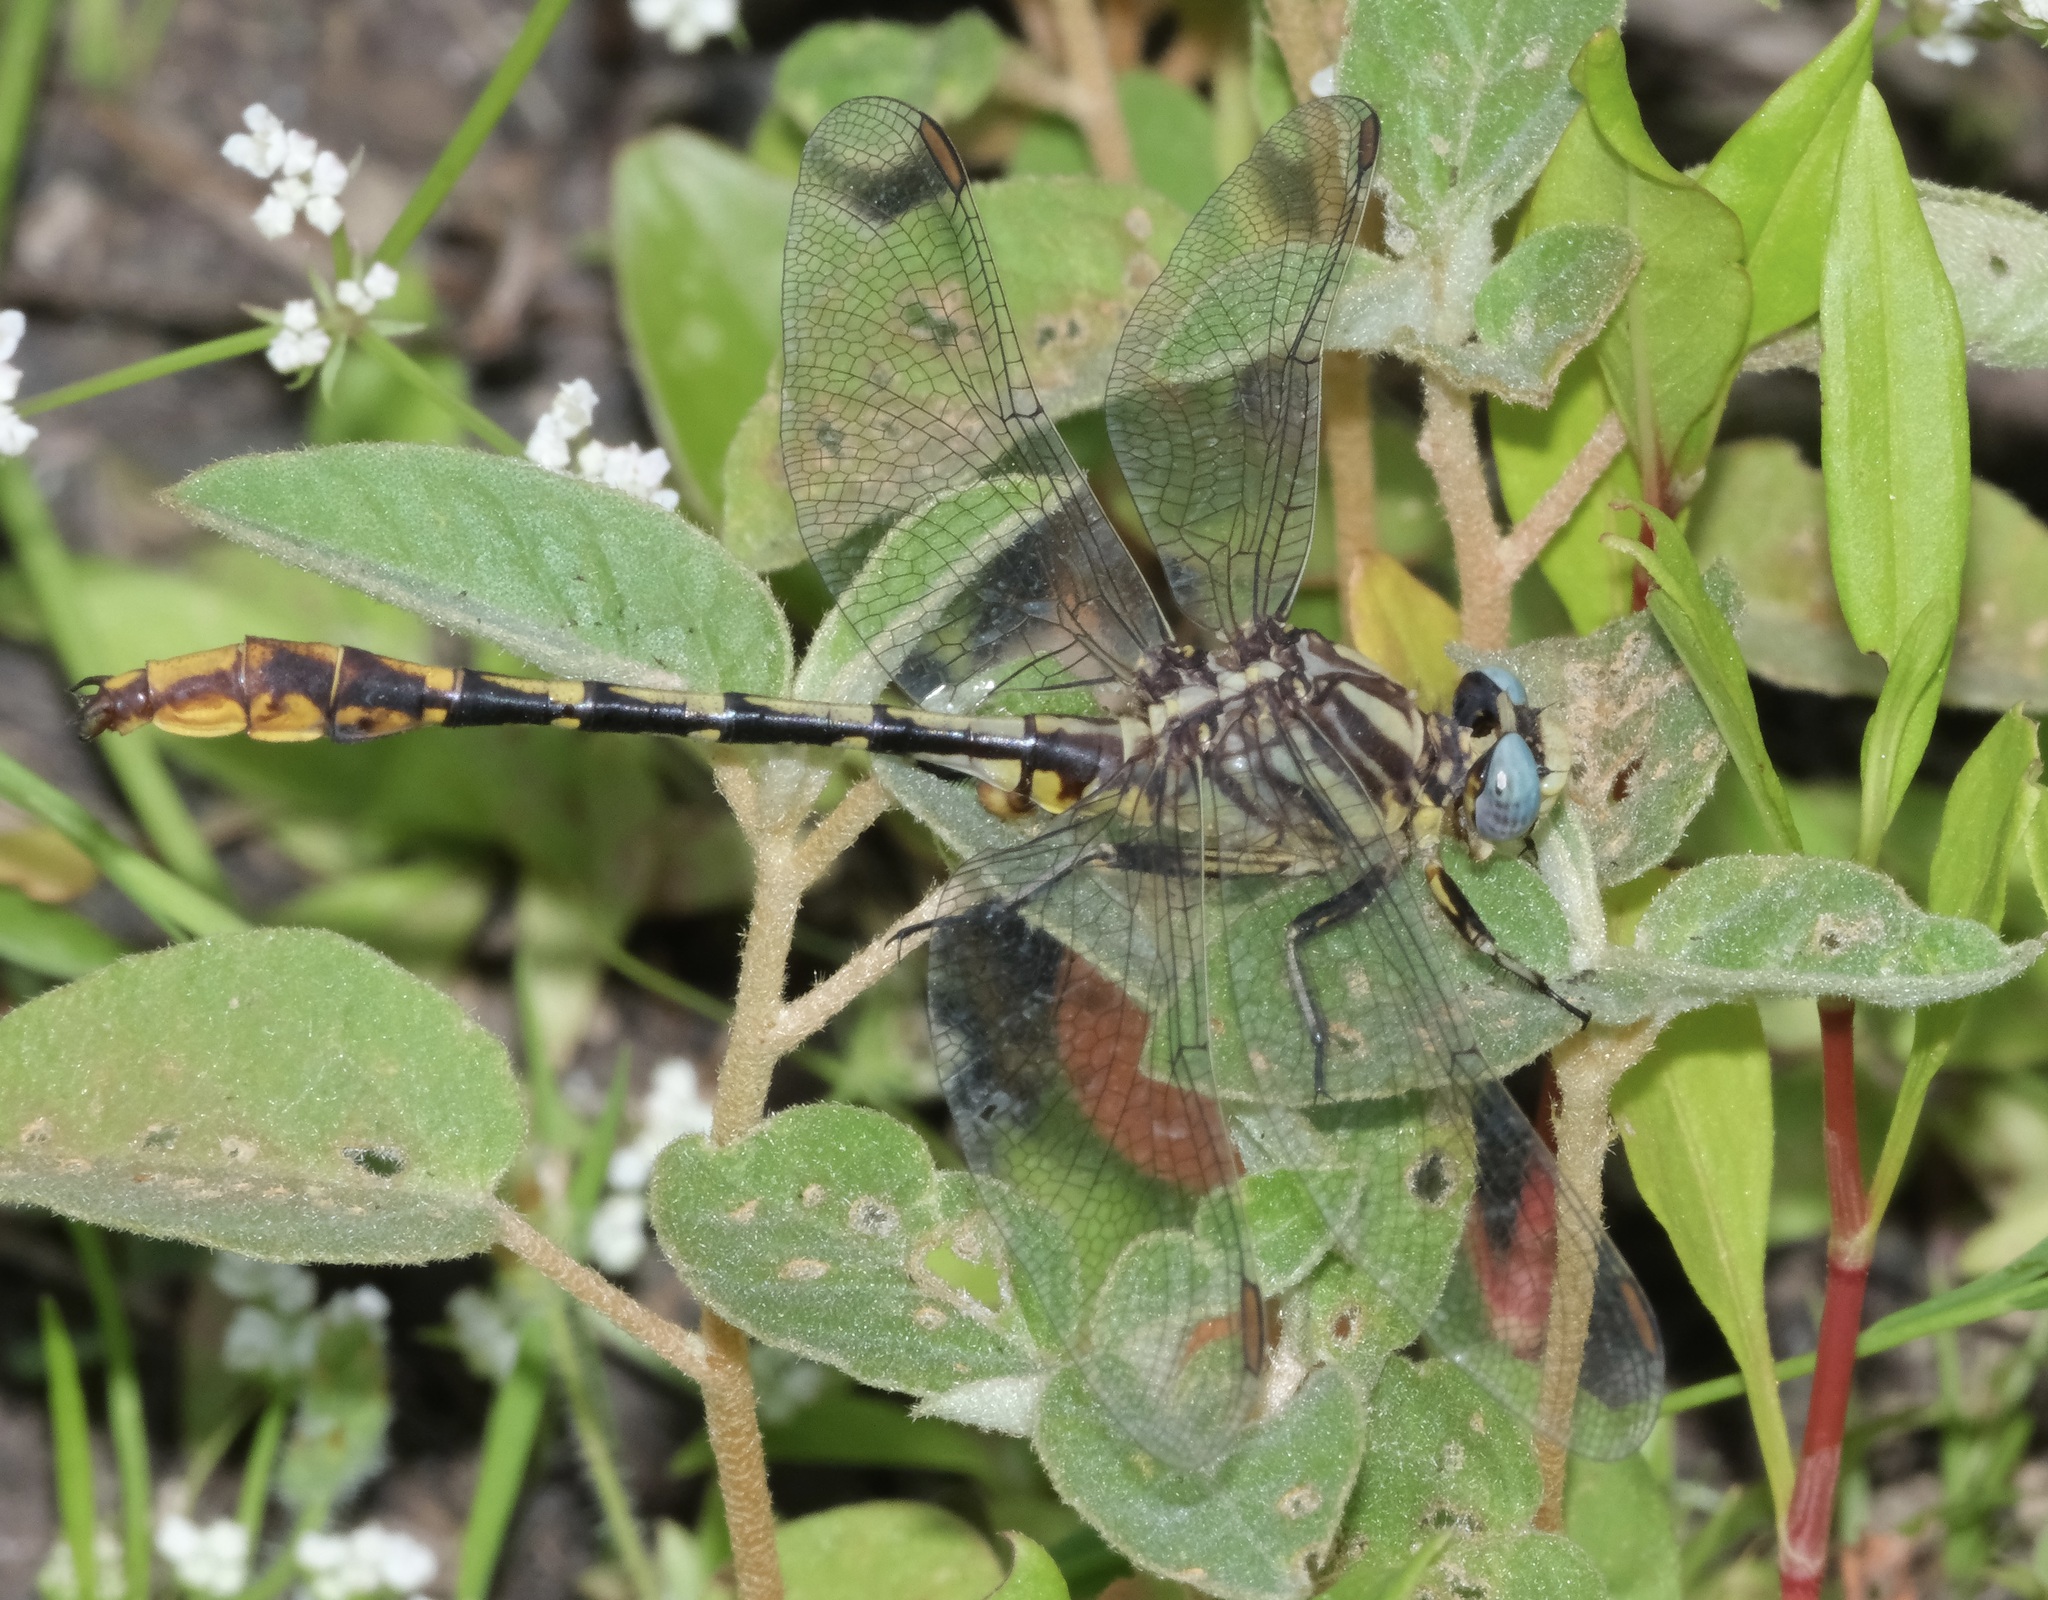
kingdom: Animalia
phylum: Arthropoda
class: Insecta
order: Odonata
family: Gomphidae
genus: Phanogomphus
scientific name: Phanogomphus militaris
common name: Sulphur-tipped clubtail
